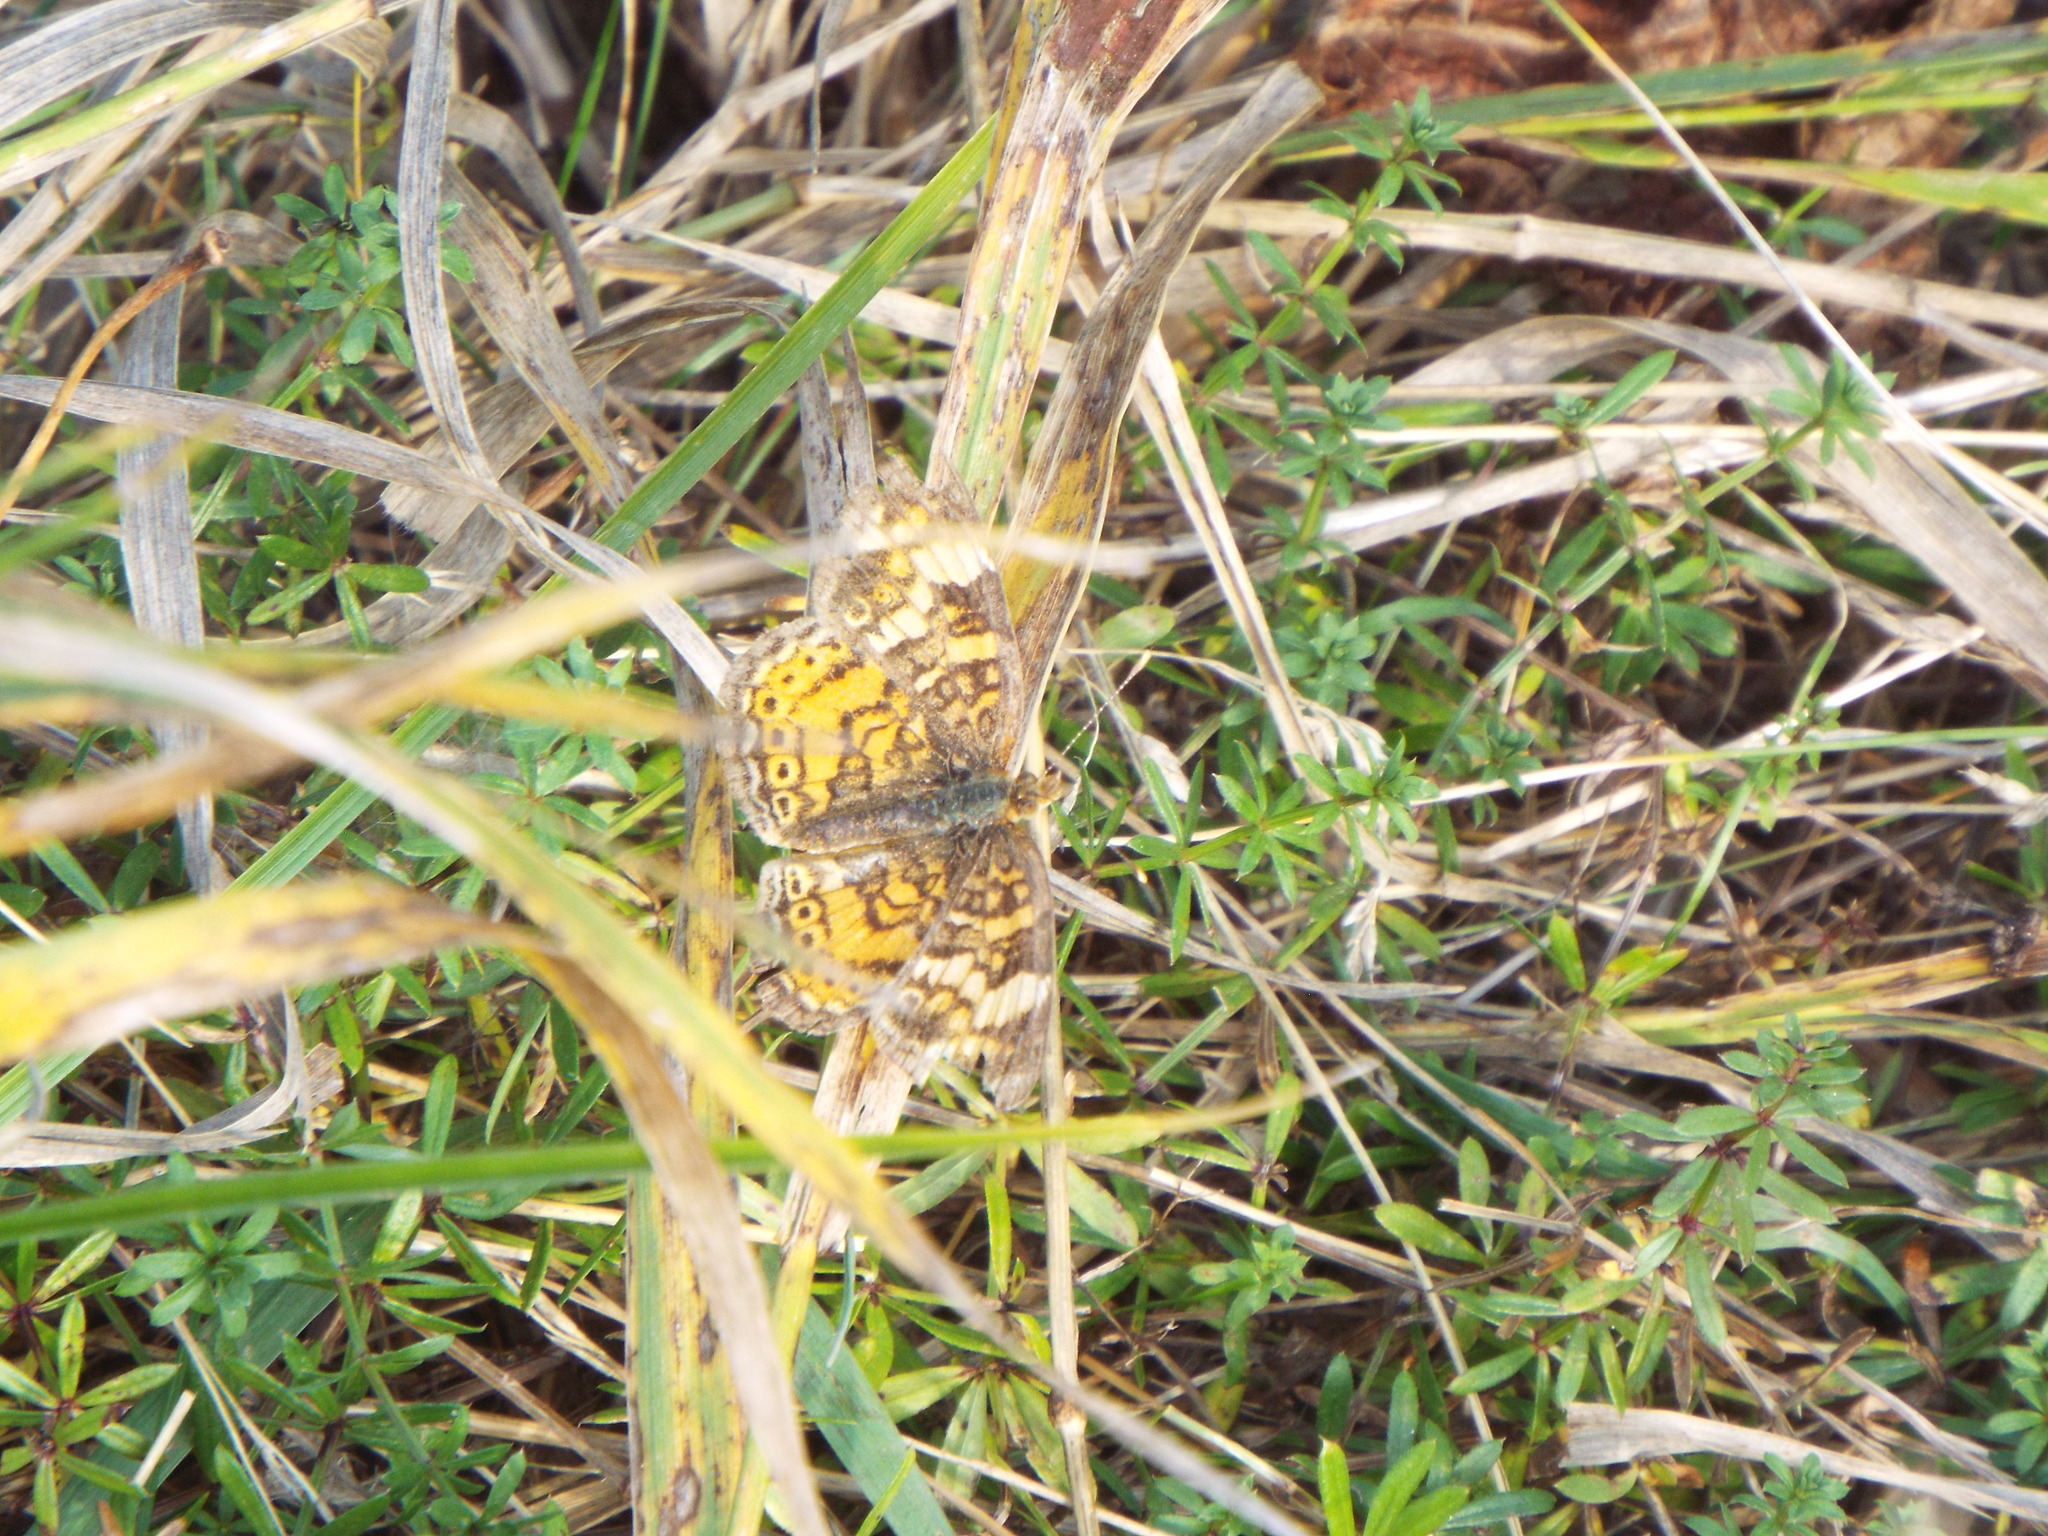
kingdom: Animalia
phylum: Arthropoda
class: Insecta
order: Lepidoptera
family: Nymphalidae
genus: Phyciodes
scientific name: Phyciodes tharos
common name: Pearl crescent
